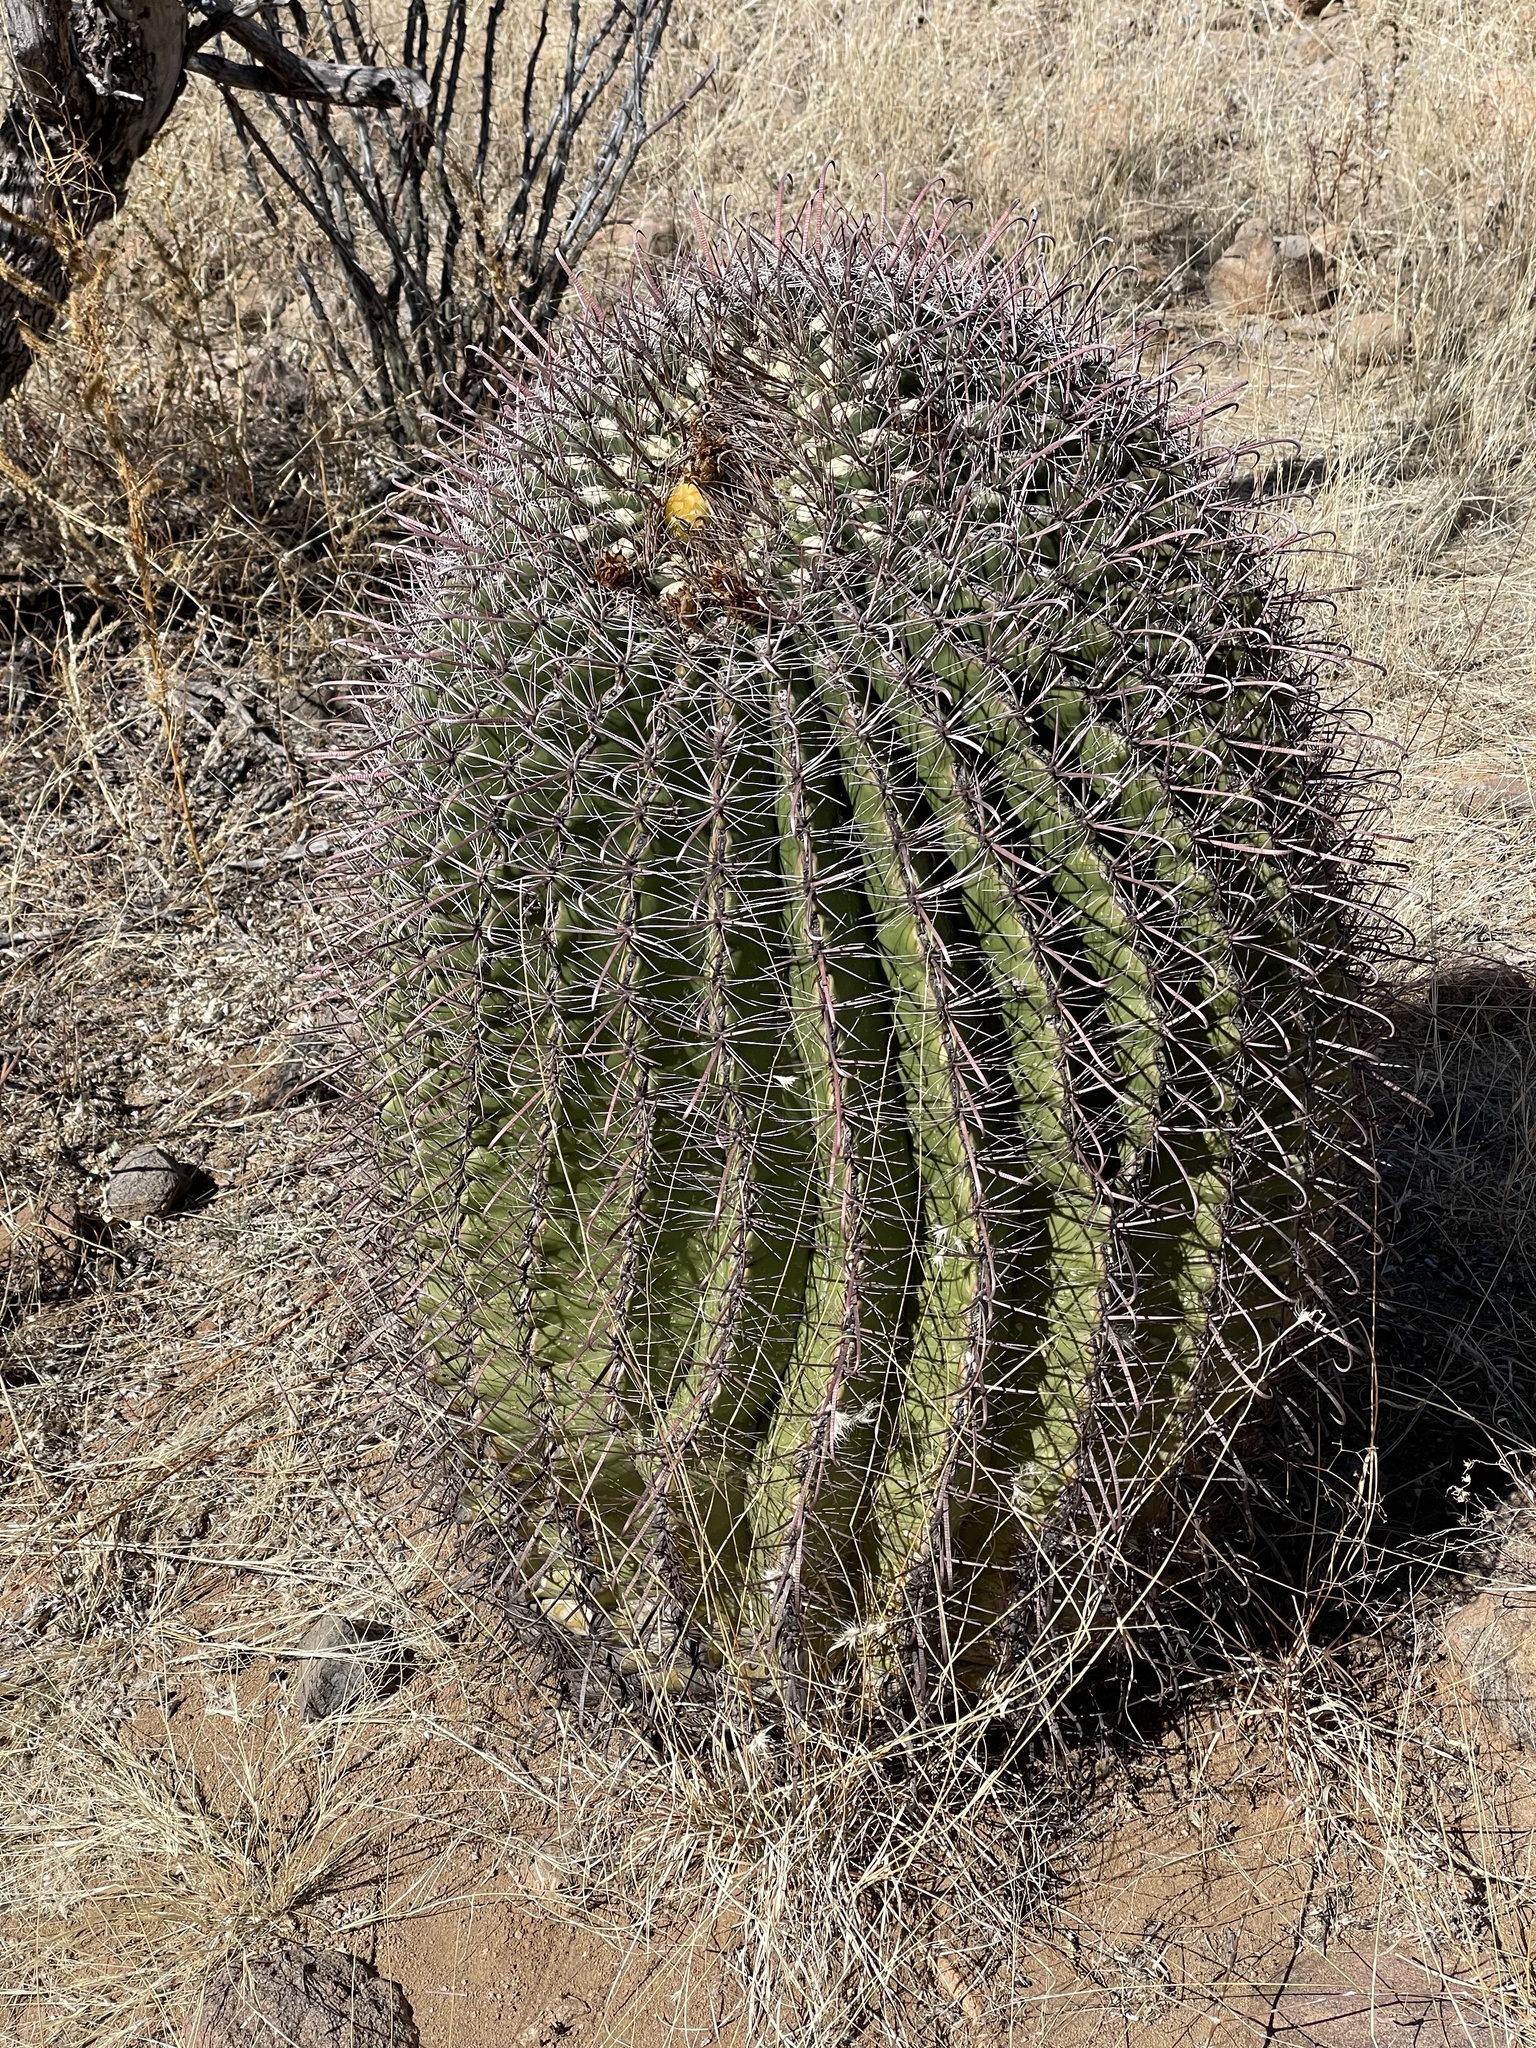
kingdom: Plantae
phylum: Tracheophyta
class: Magnoliopsida
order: Caryophyllales
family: Cactaceae
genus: Ferocactus
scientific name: Ferocactus wislizeni
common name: Candy barrel cactus
